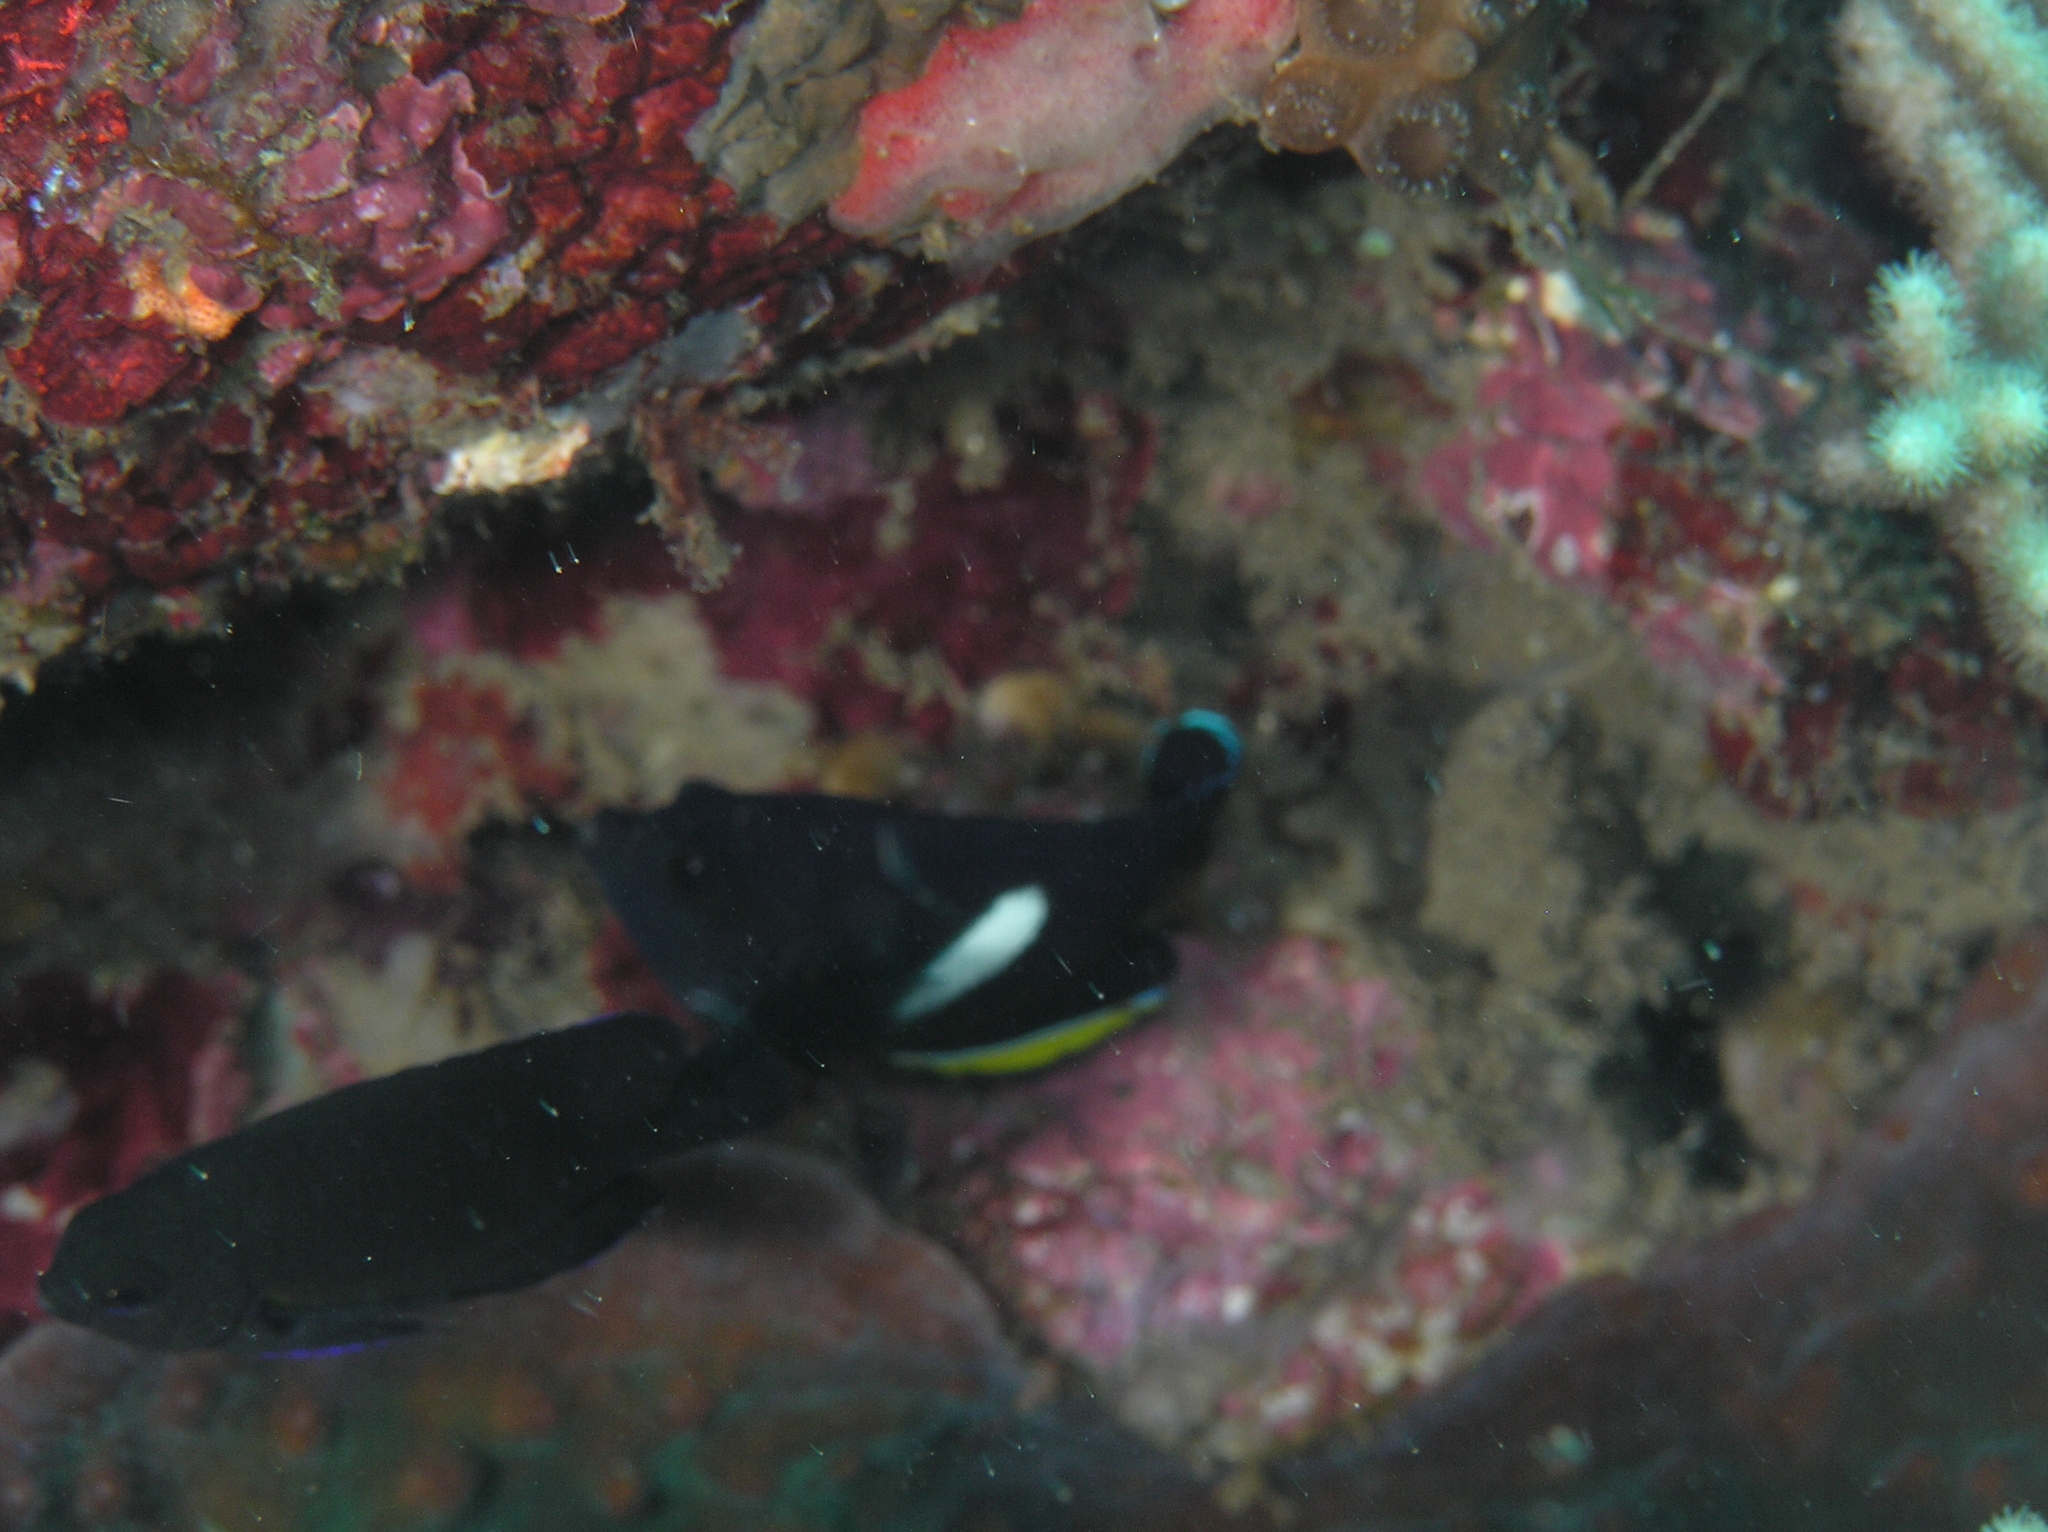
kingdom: Animalia
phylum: Chordata
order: Perciformes
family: Pomacanthidae
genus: Centropyge
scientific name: Centropyge tibicen
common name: Keyhole angelfish
